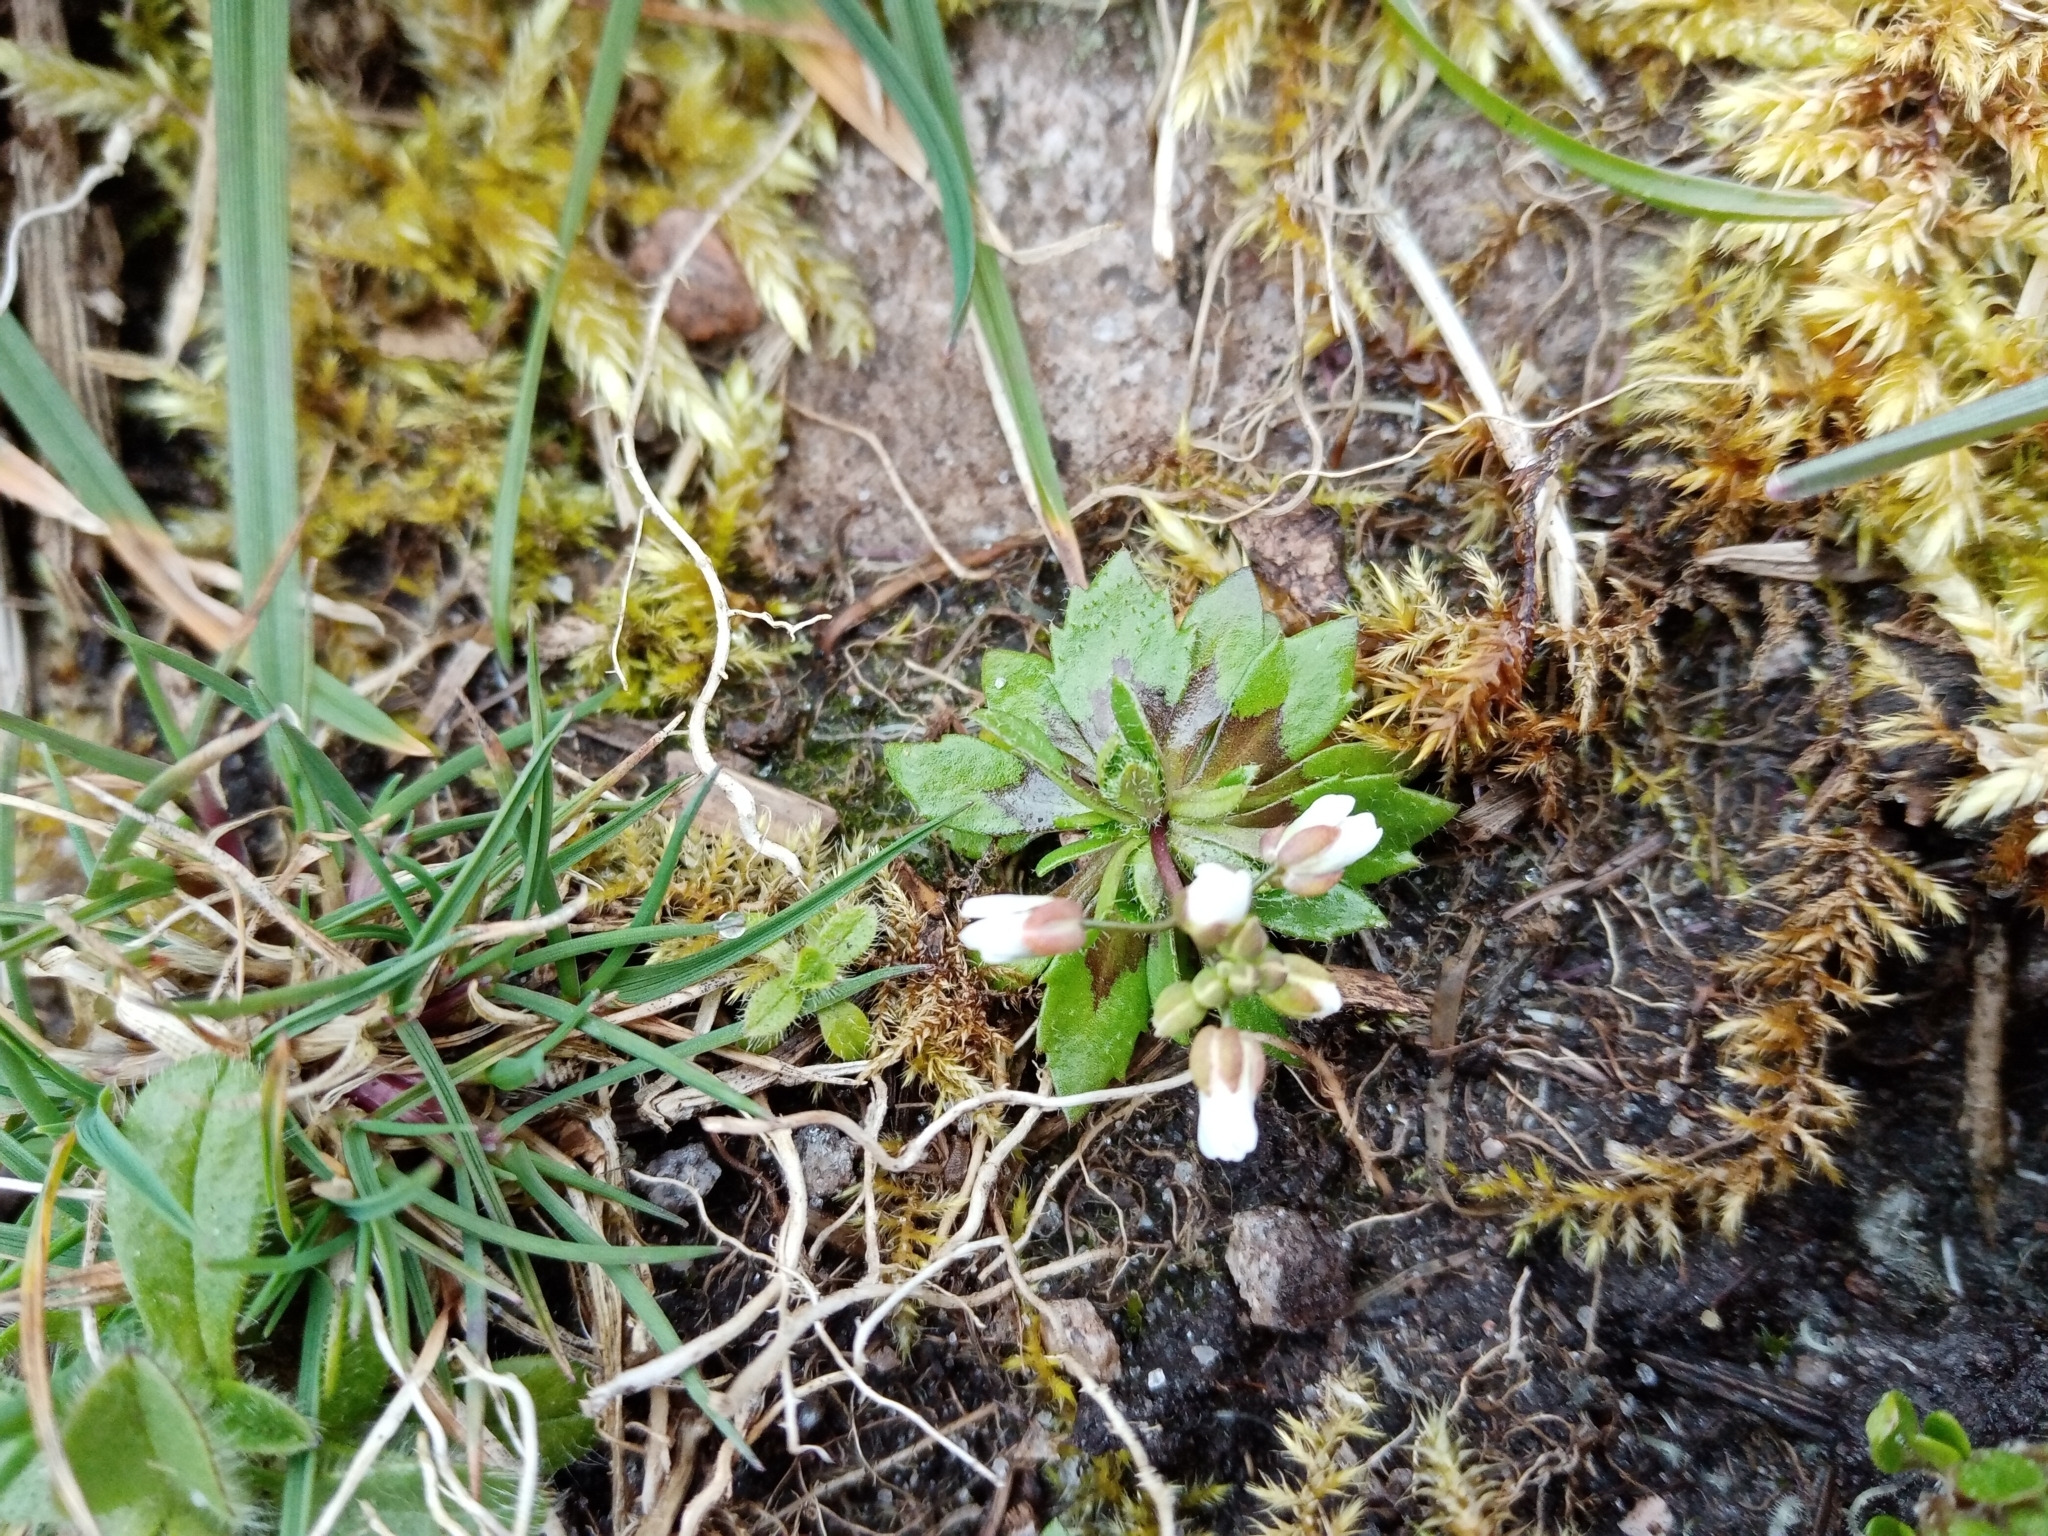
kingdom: Plantae
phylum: Tracheophyta
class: Magnoliopsida
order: Brassicales
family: Brassicaceae
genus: Draba
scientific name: Draba verna
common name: Spring draba
